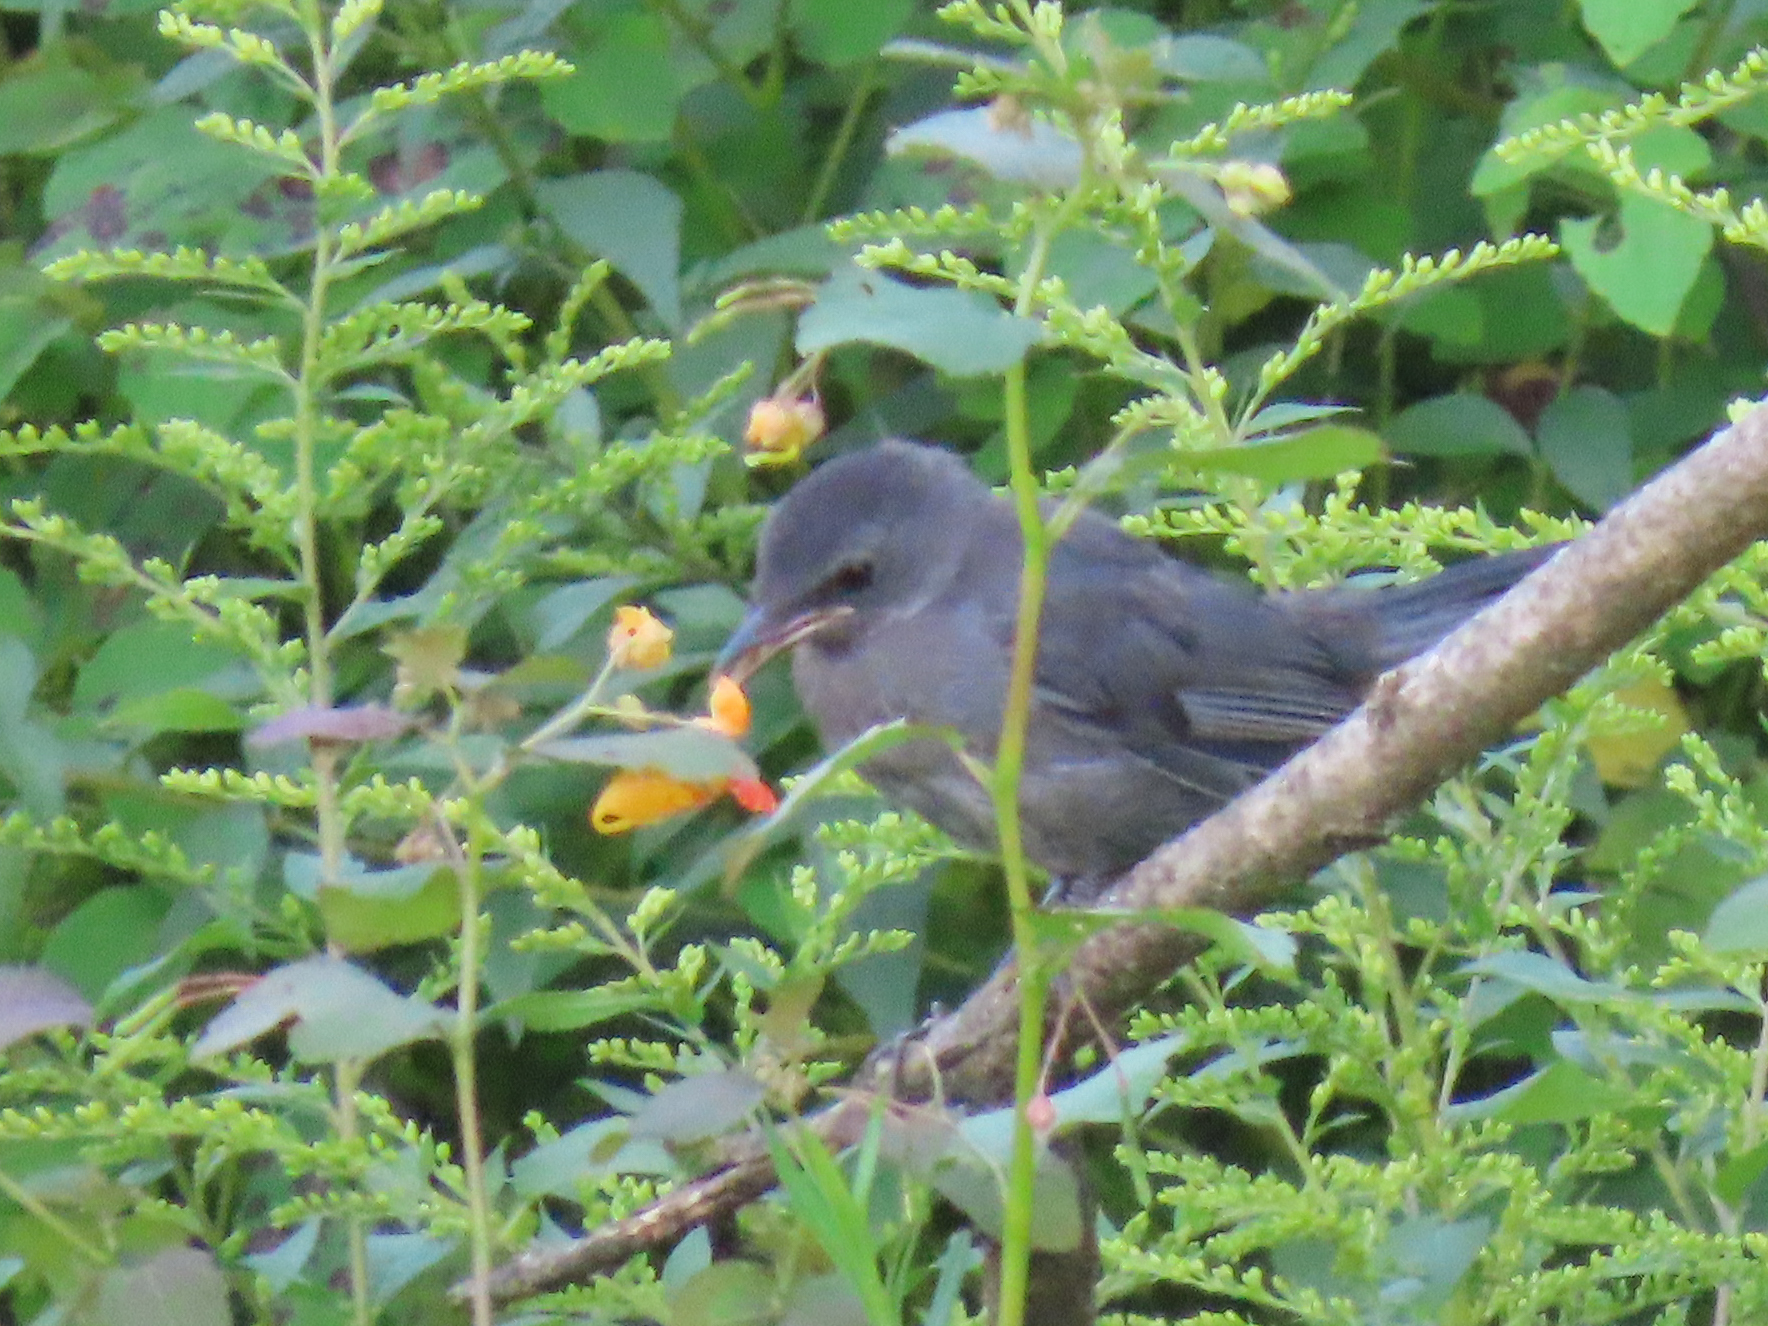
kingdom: Animalia
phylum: Chordata
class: Aves
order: Passeriformes
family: Mimidae
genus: Dumetella
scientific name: Dumetella carolinensis
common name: Gray catbird
